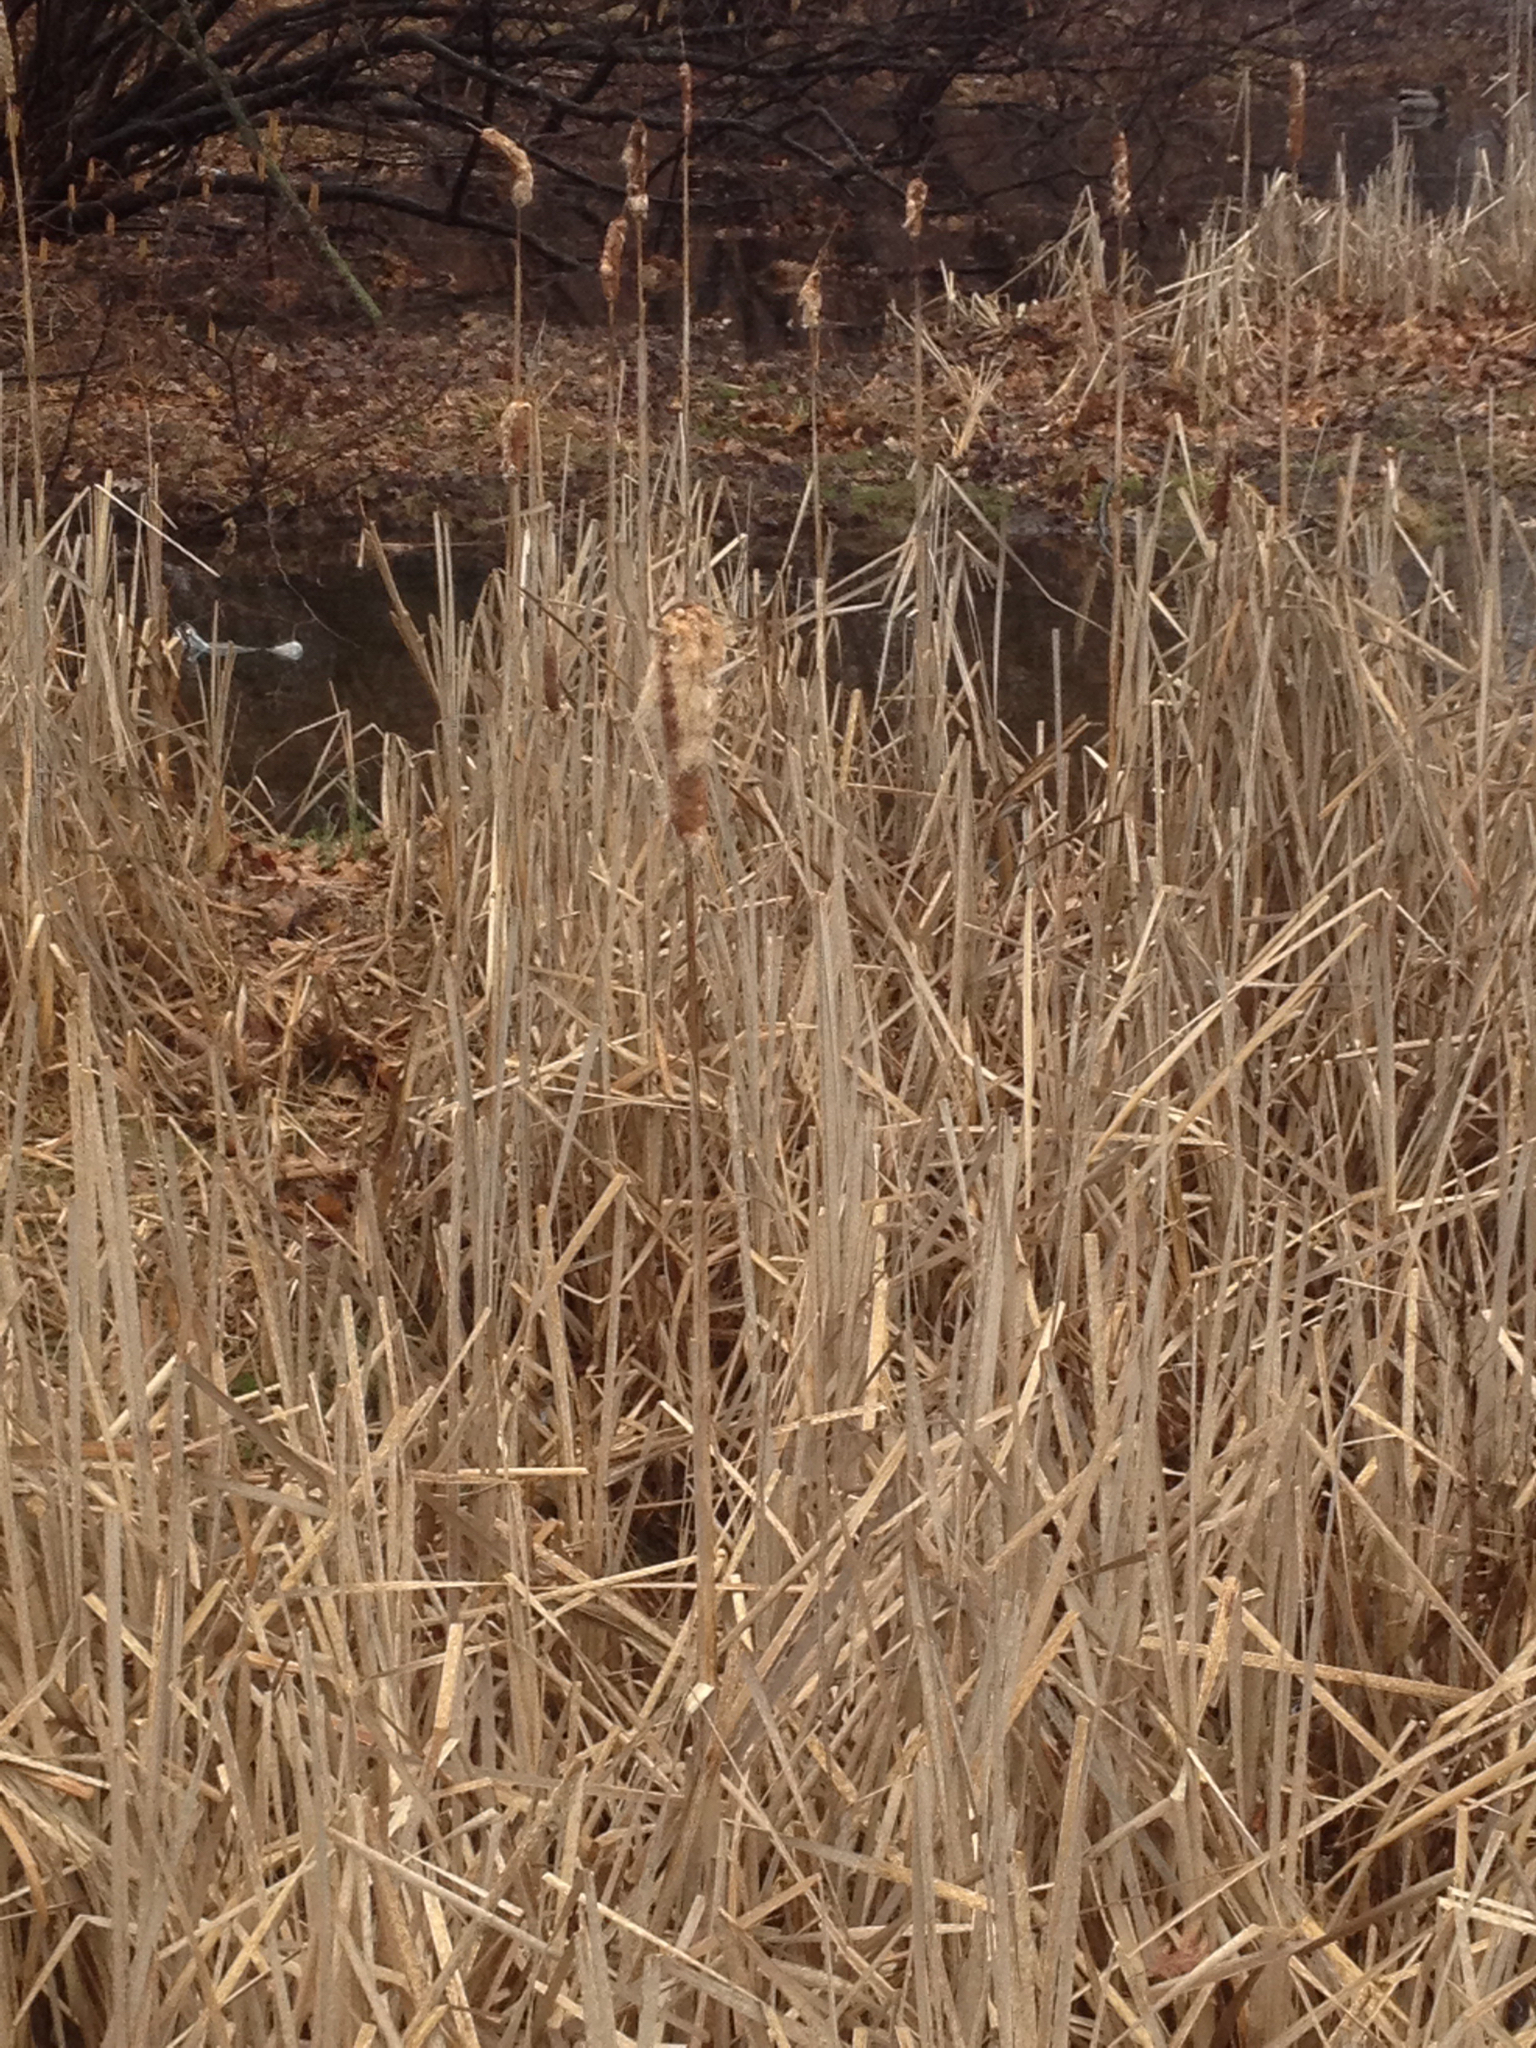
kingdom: Plantae
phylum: Tracheophyta
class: Liliopsida
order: Poales
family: Typhaceae
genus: Typha
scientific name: Typha latifolia
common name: Broadleaf cattail
